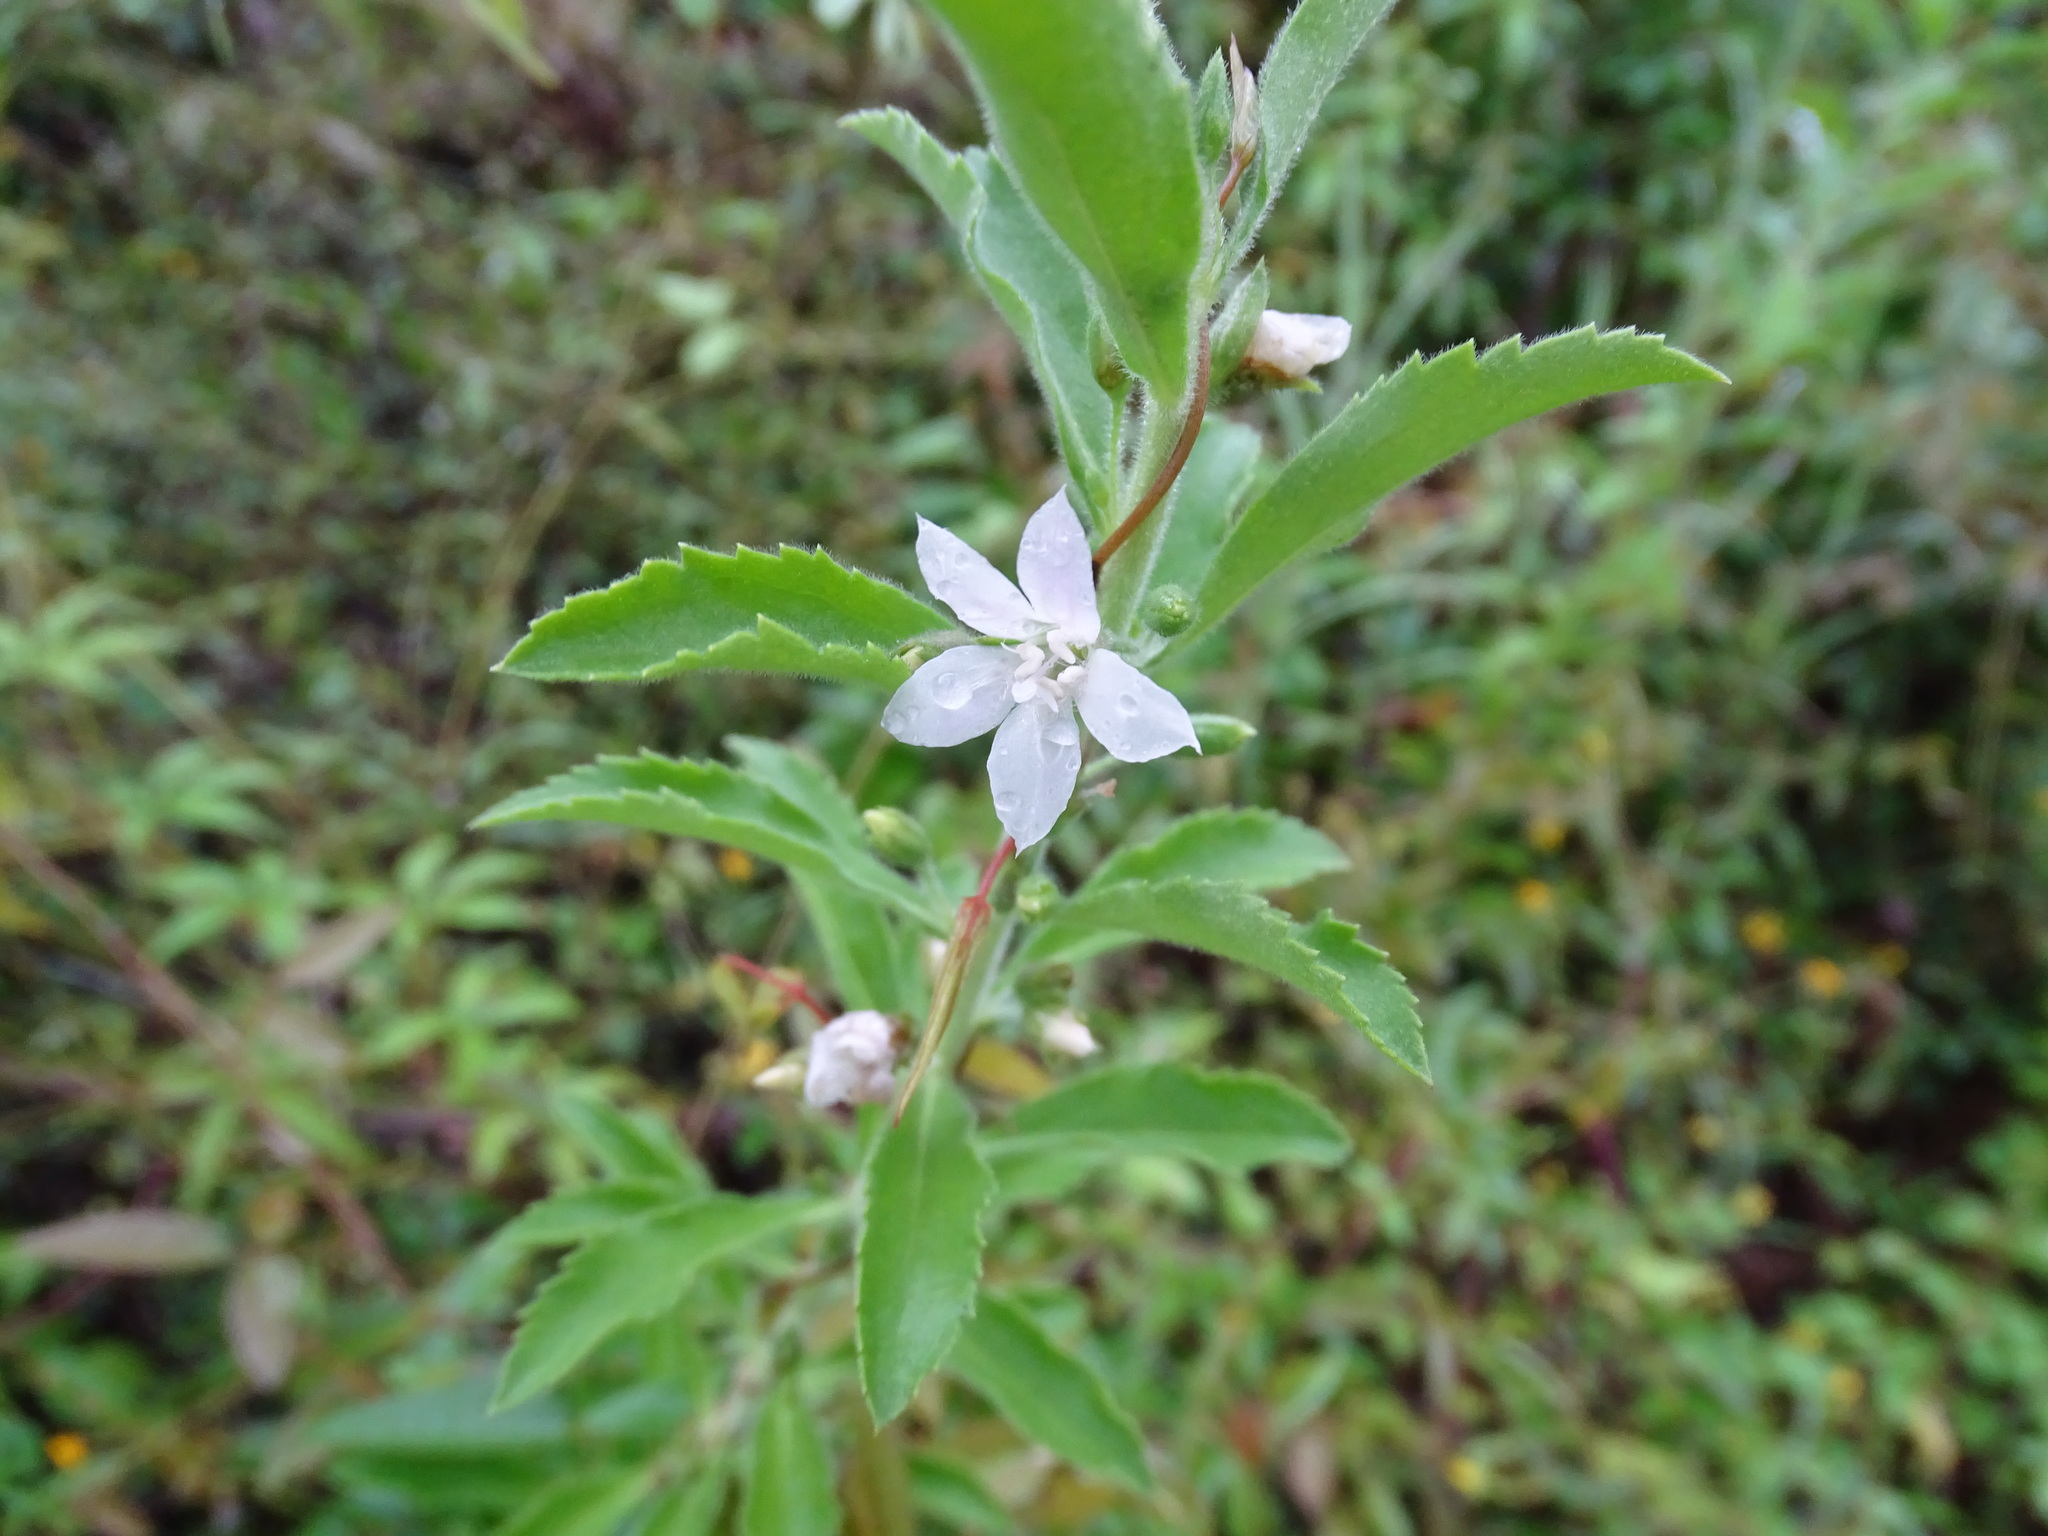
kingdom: Plantae
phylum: Tracheophyta
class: Magnoliopsida
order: Lamiales
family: Scrophulariaceae
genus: Capraria
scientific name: Capraria mexicana
